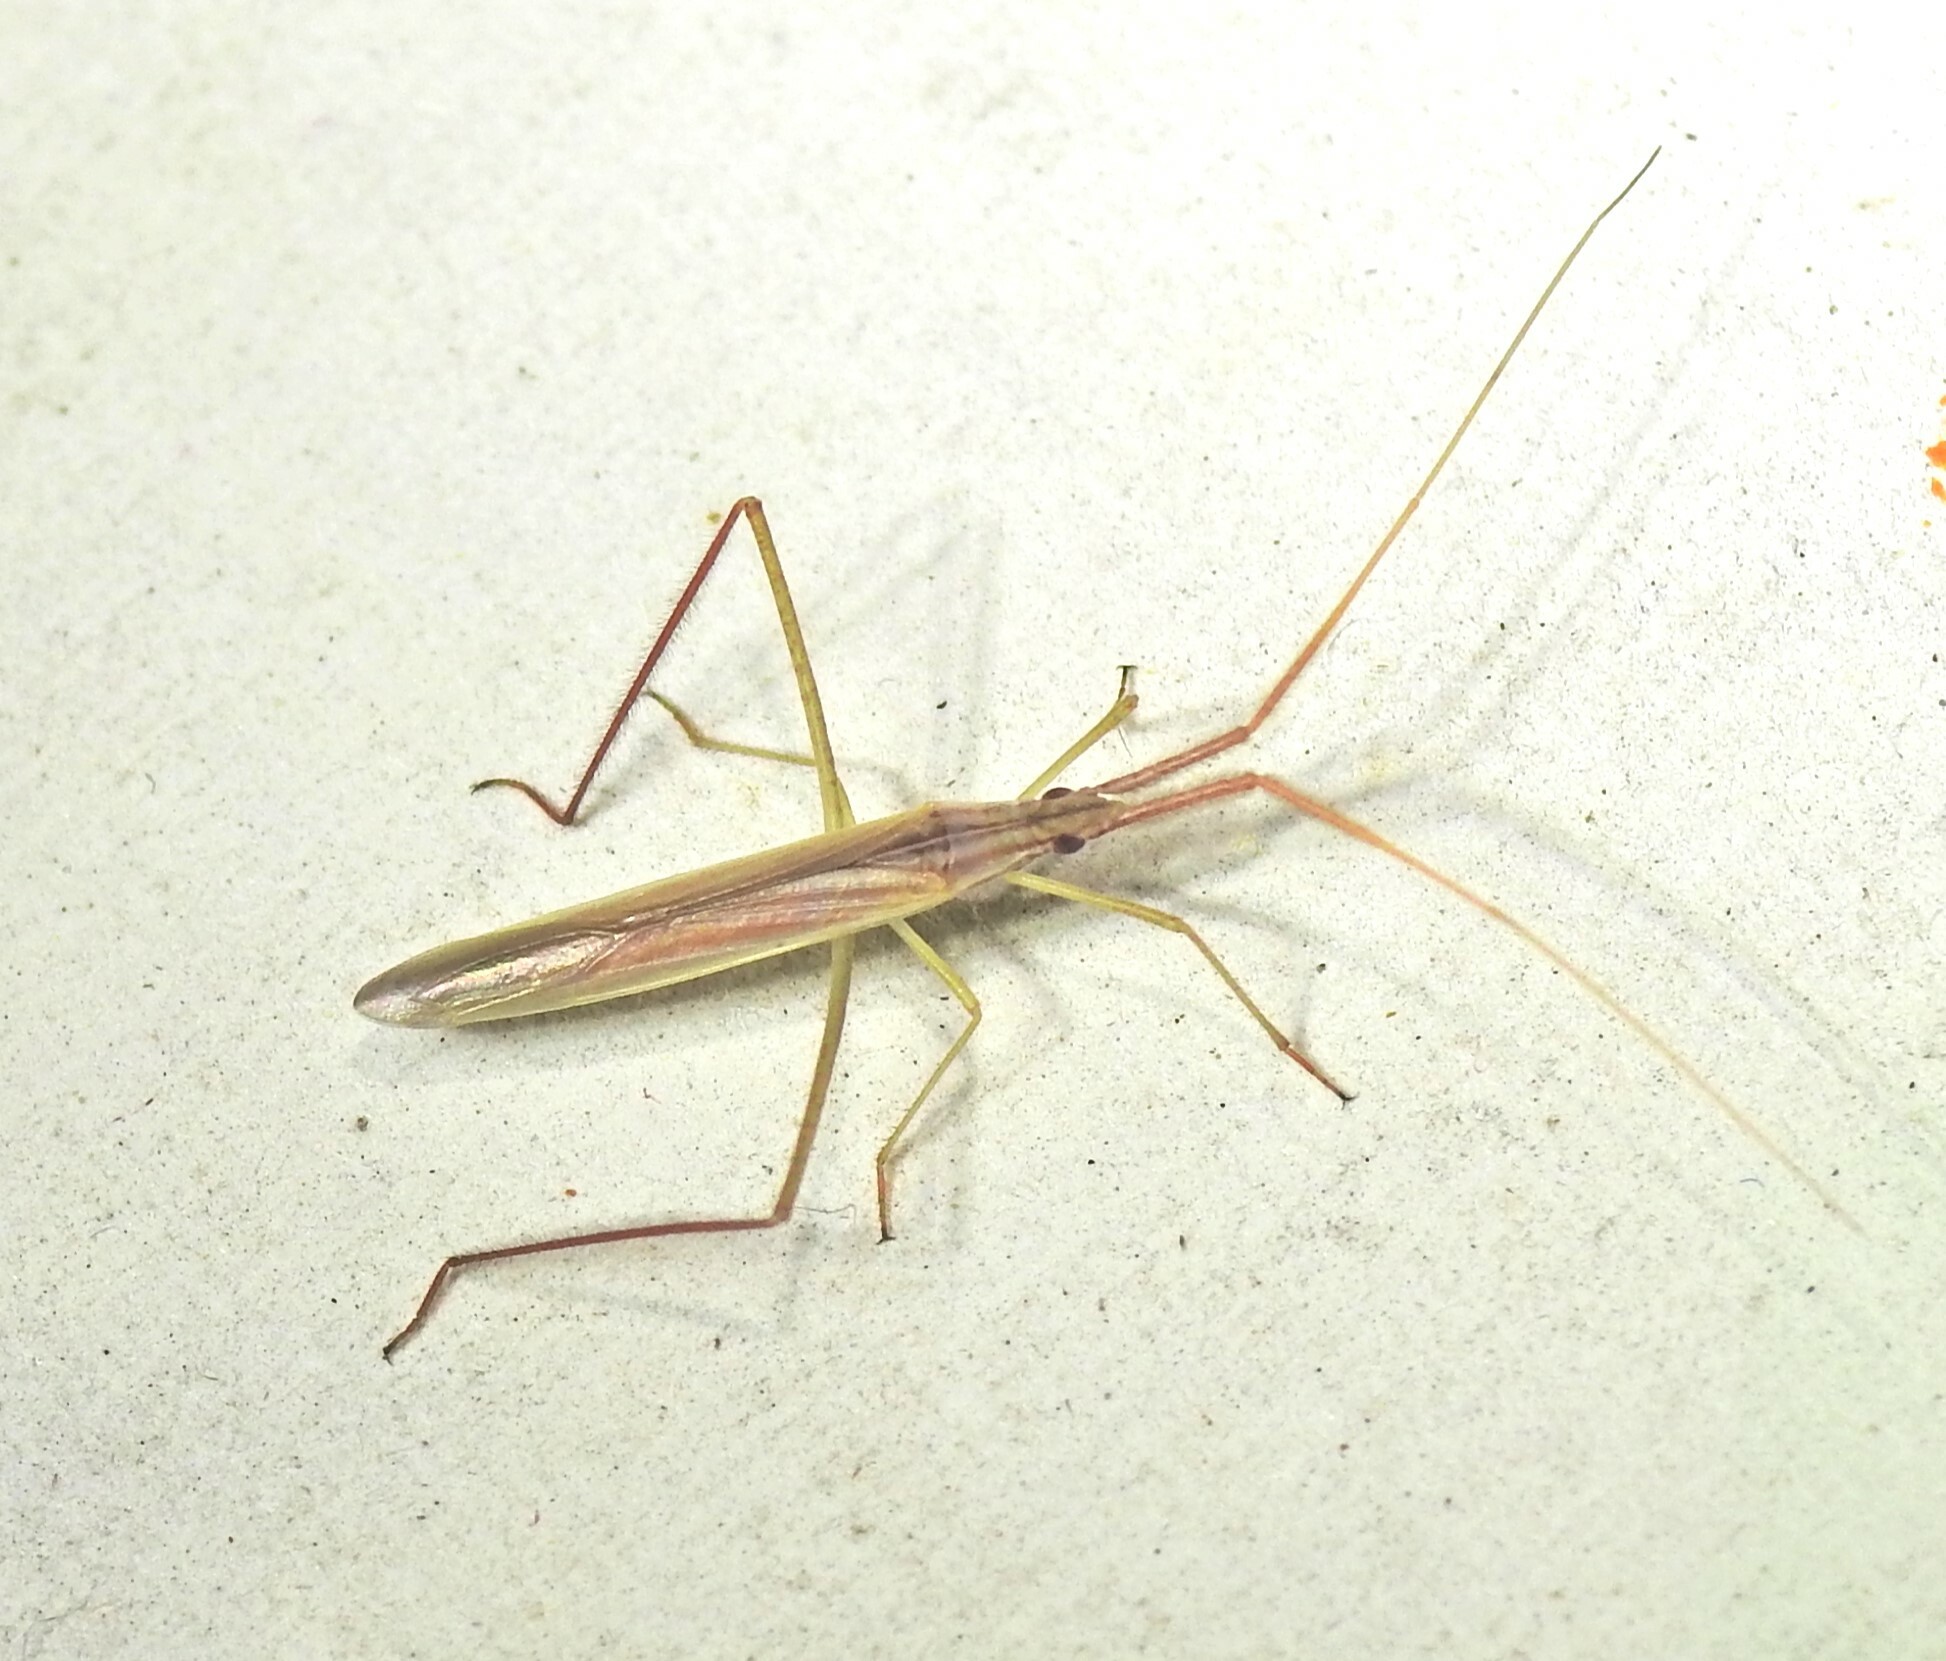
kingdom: Animalia
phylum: Arthropoda
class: Insecta
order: Hemiptera
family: Miridae
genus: Dolichomiris
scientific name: Dolichomiris linearis
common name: Plant bug
